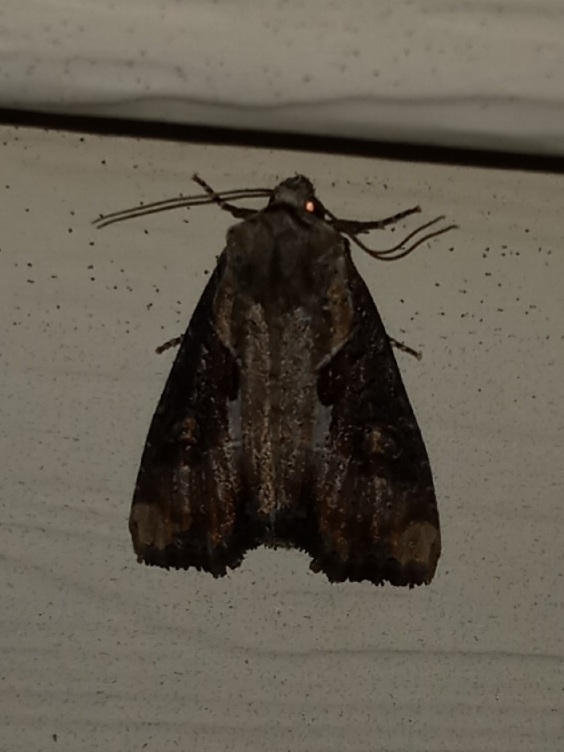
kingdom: Animalia
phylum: Arthropoda
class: Insecta
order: Lepidoptera
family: Noctuidae
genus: Lateroligia
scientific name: Lateroligia ophiogramma
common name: Double lobed
